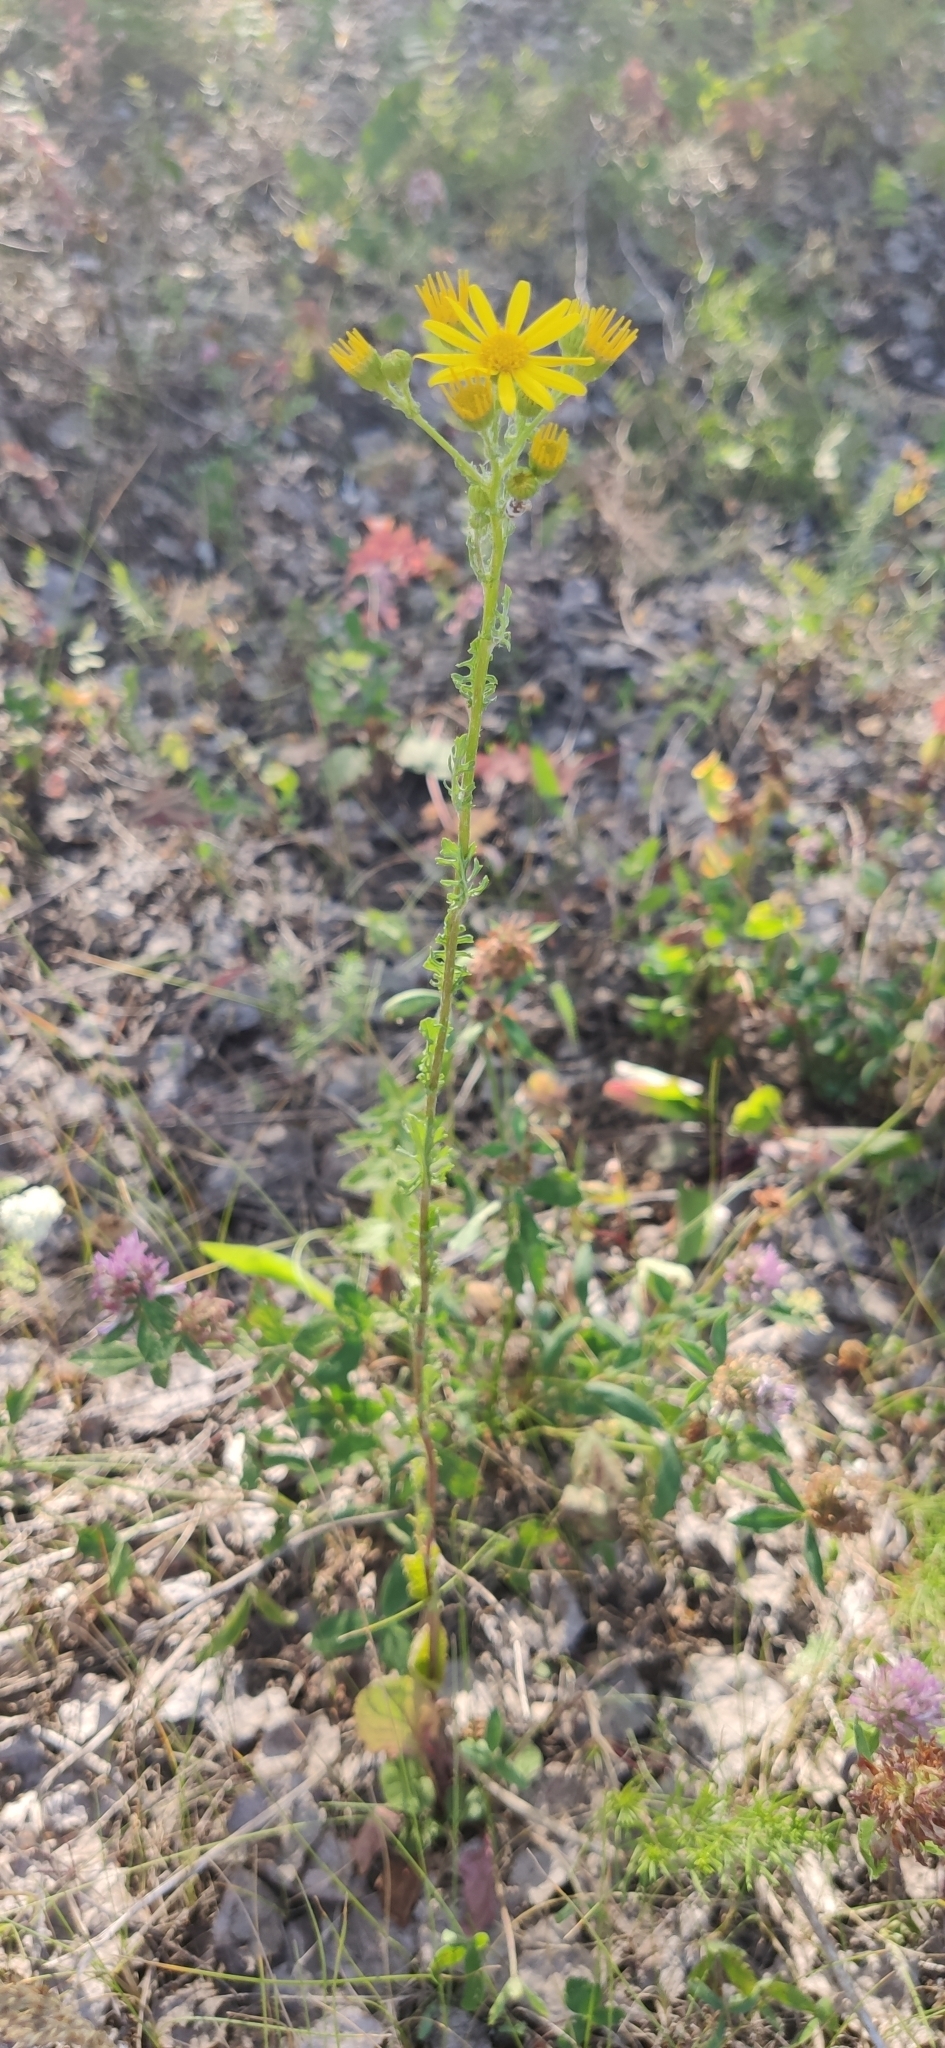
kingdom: Plantae
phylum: Tracheophyta
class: Magnoliopsida
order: Asterales
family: Asteraceae
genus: Jacobaea
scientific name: Jacobaea vulgaris
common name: Stinking willie
